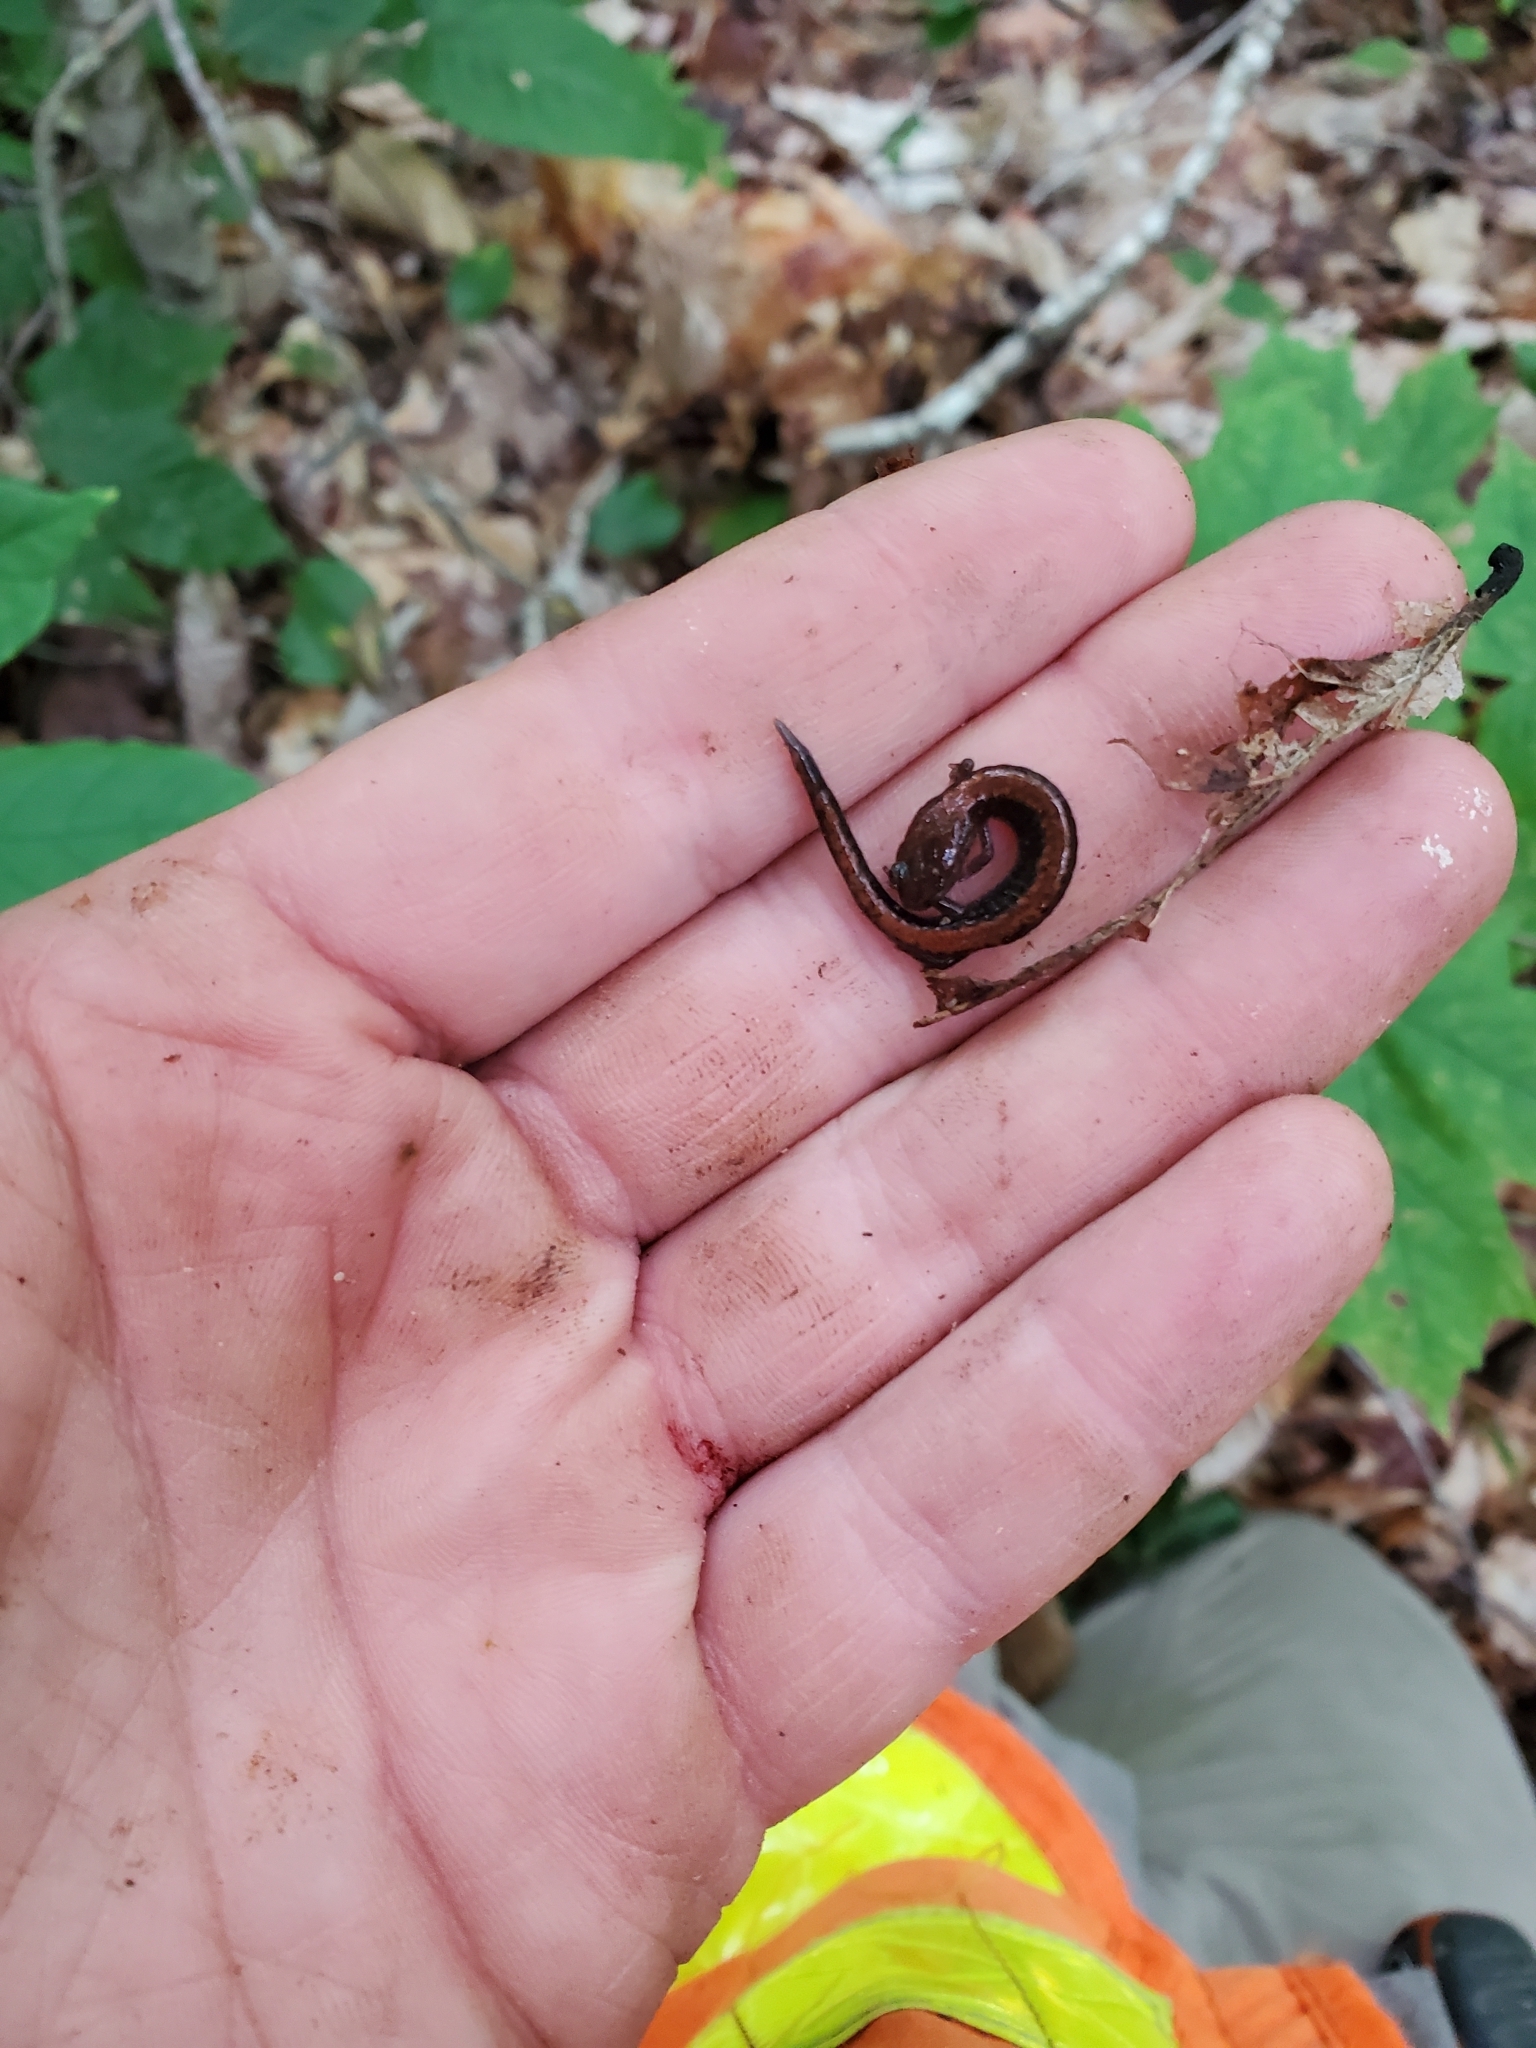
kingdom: Animalia
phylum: Chordata
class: Amphibia
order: Caudata
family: Plethodontidae
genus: Plethodon
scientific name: Plethodon cinereus
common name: Redback salamander
